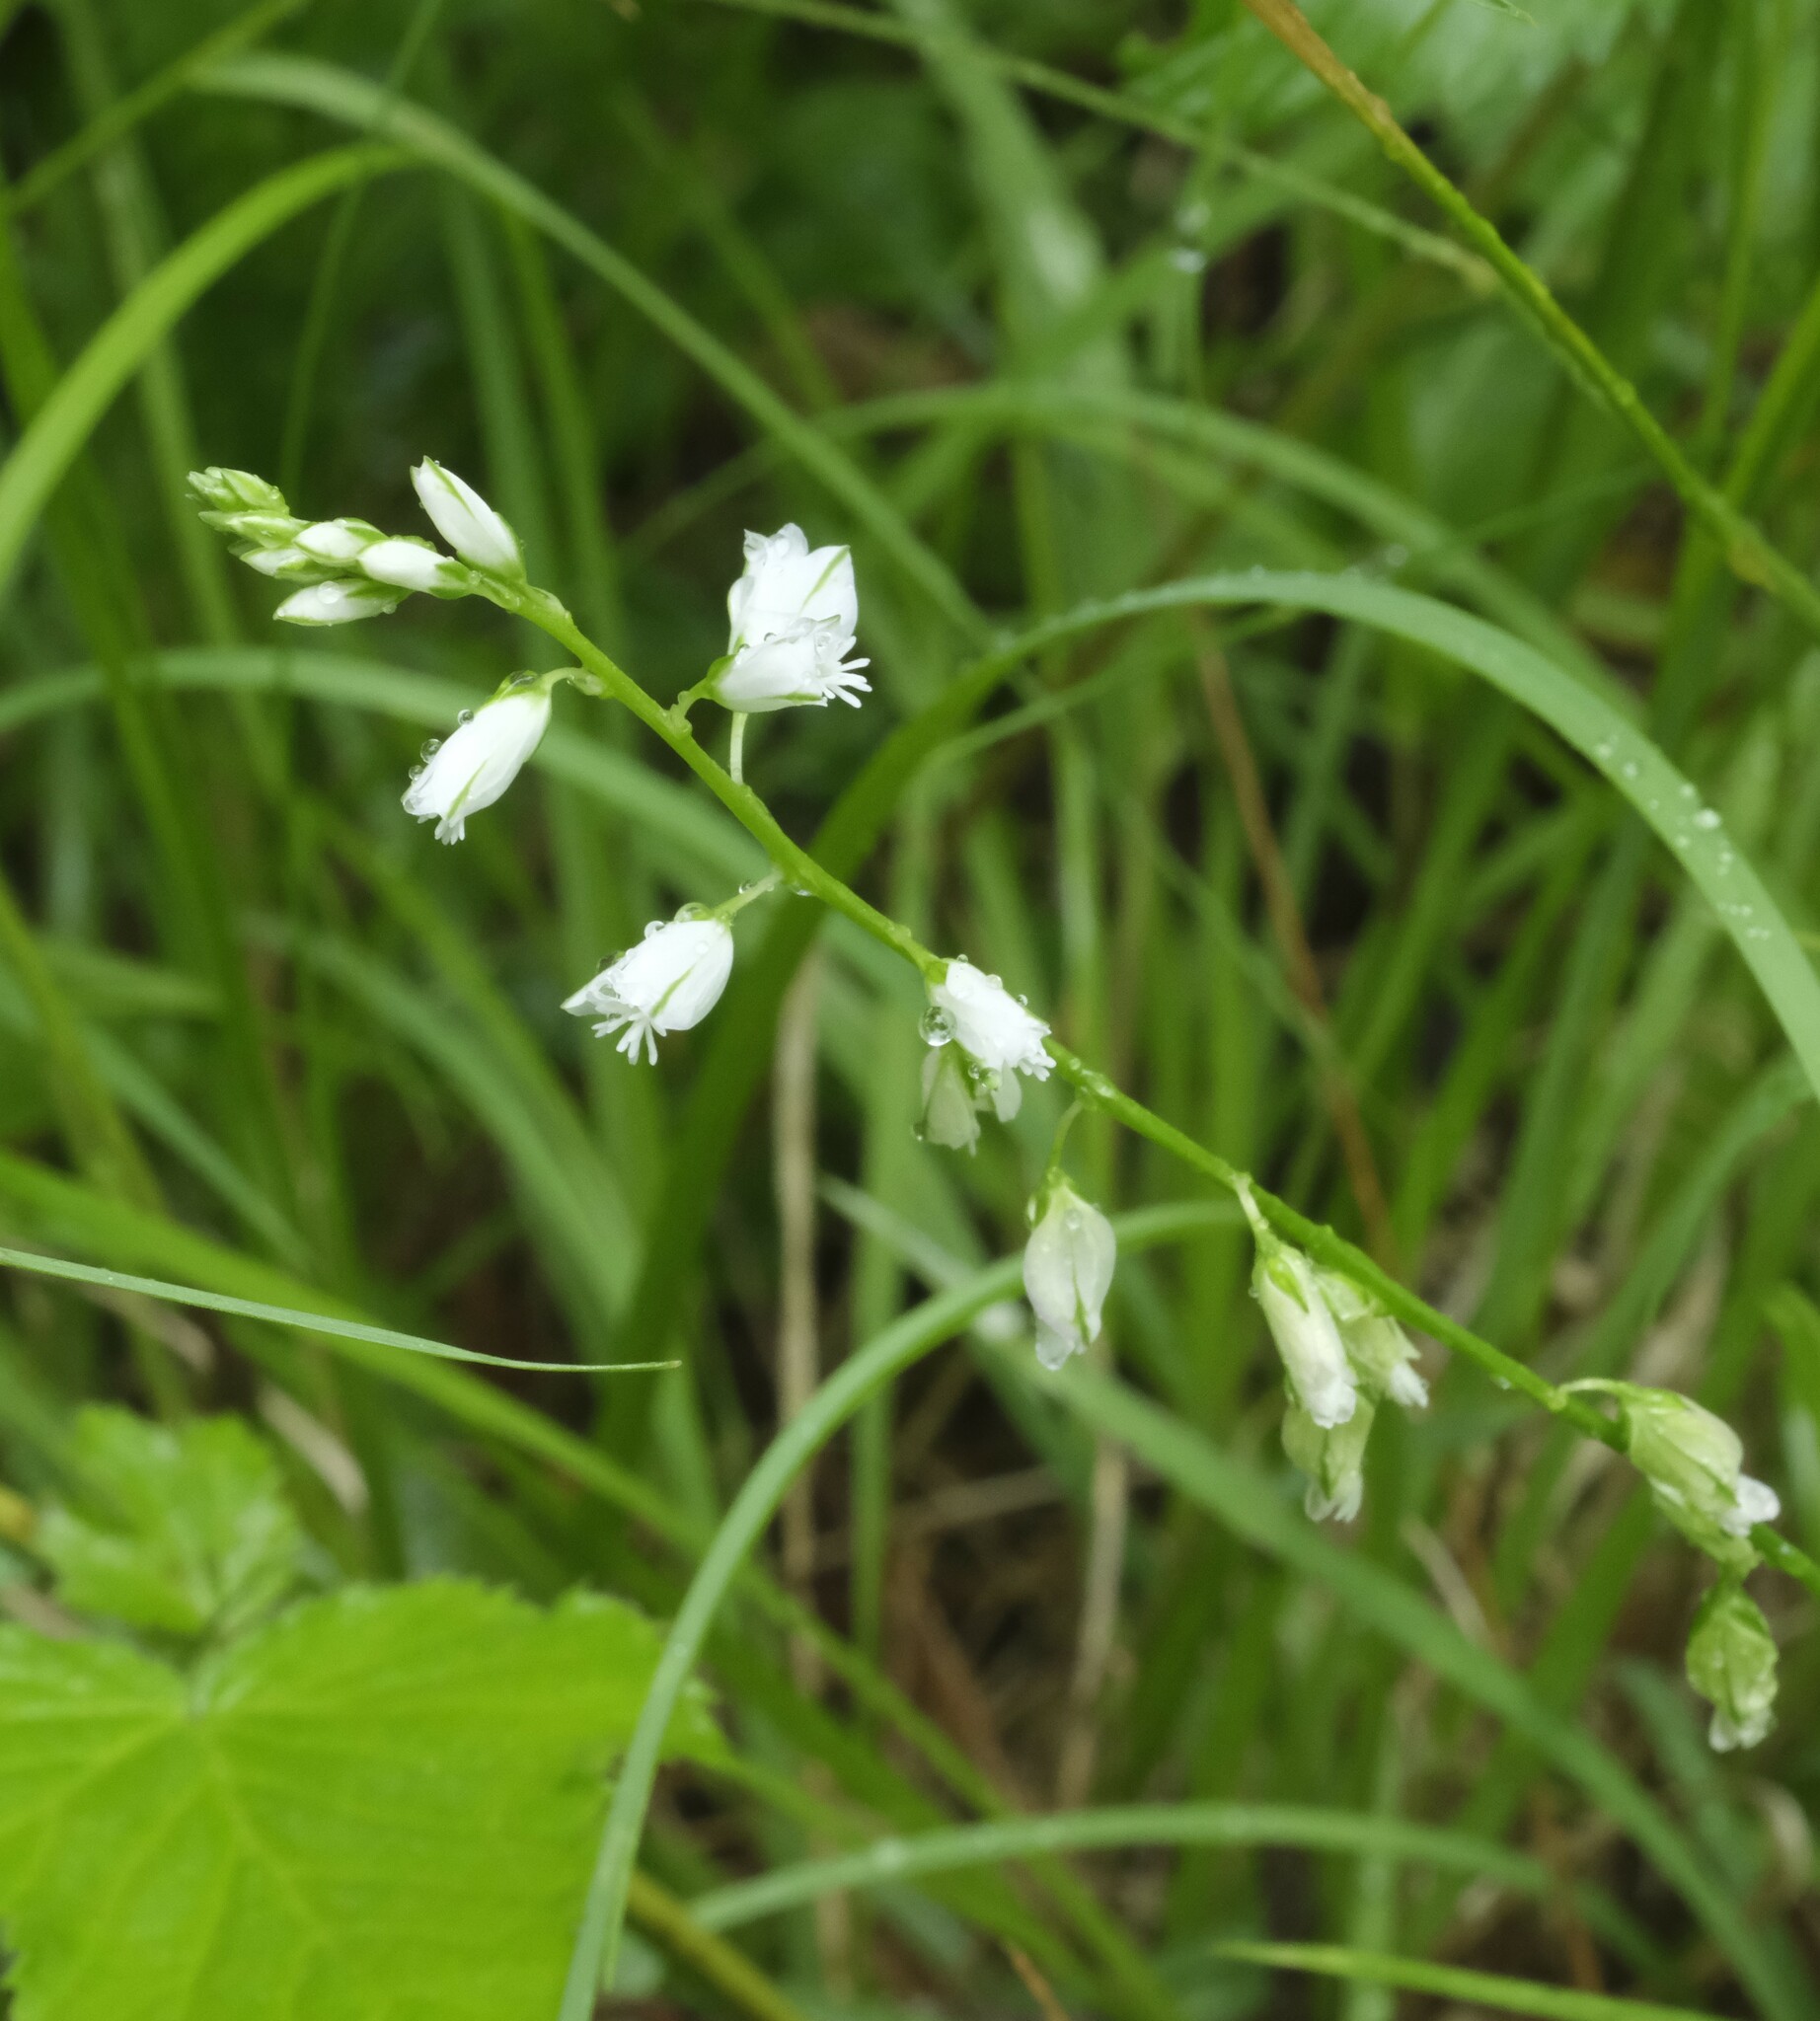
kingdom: Plantae
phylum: Tracheophyta
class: Magnoliopsida
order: Fabales
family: Polygalaceae
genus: Polygala
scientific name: Polygala polygama
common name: Bitter milkwort
